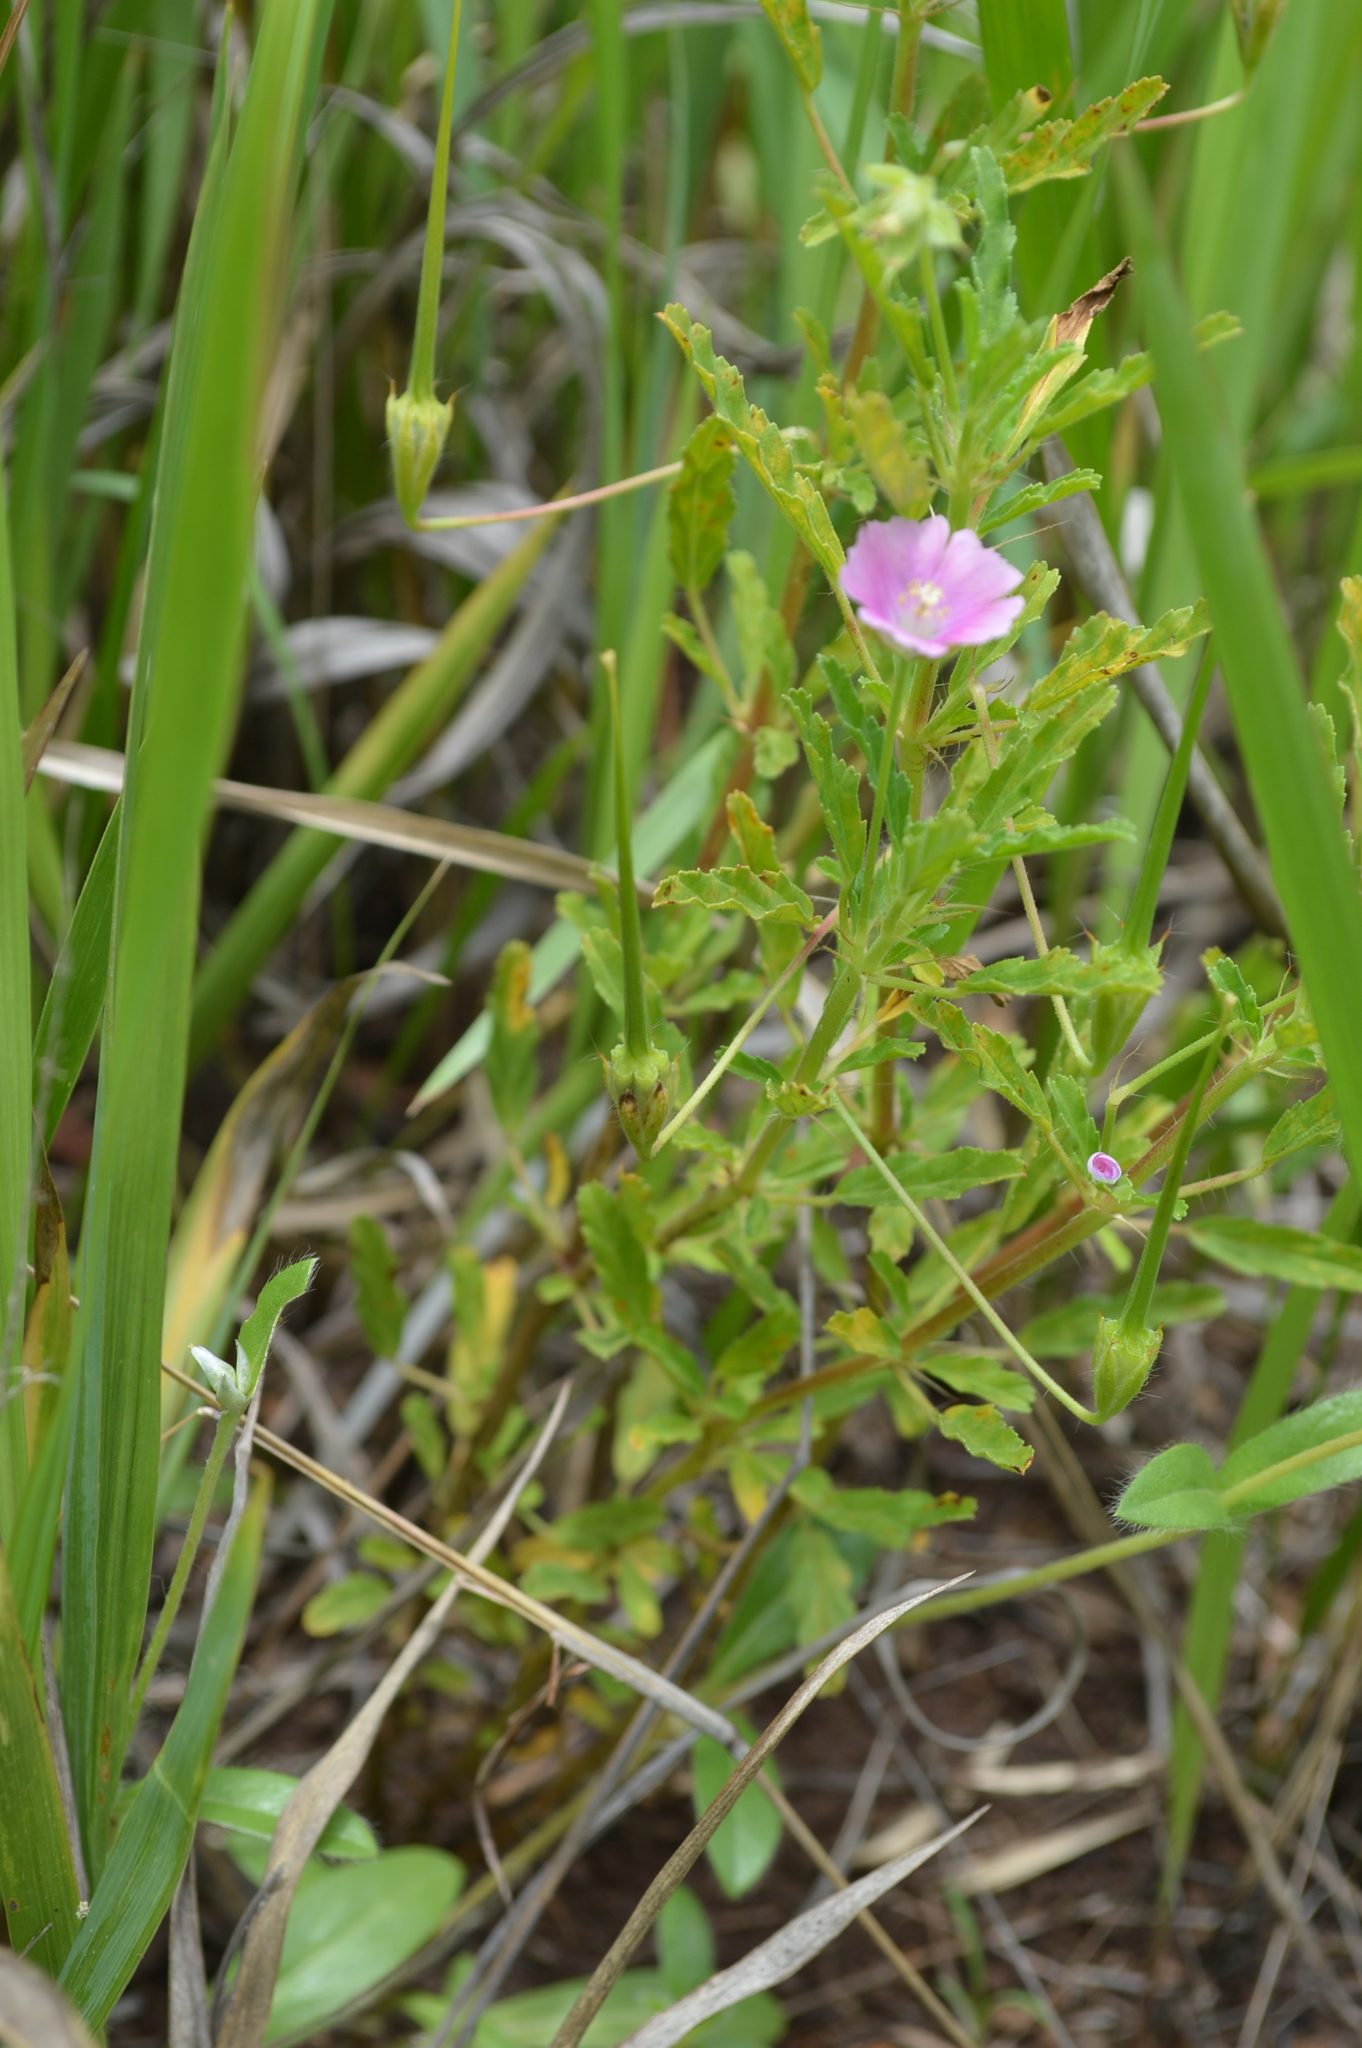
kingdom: Plantae
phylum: Tracheophyta
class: Magnoliopsida
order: Geraniales
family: Geraniaceae
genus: Monsonia
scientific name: Monsonia angustifolia
